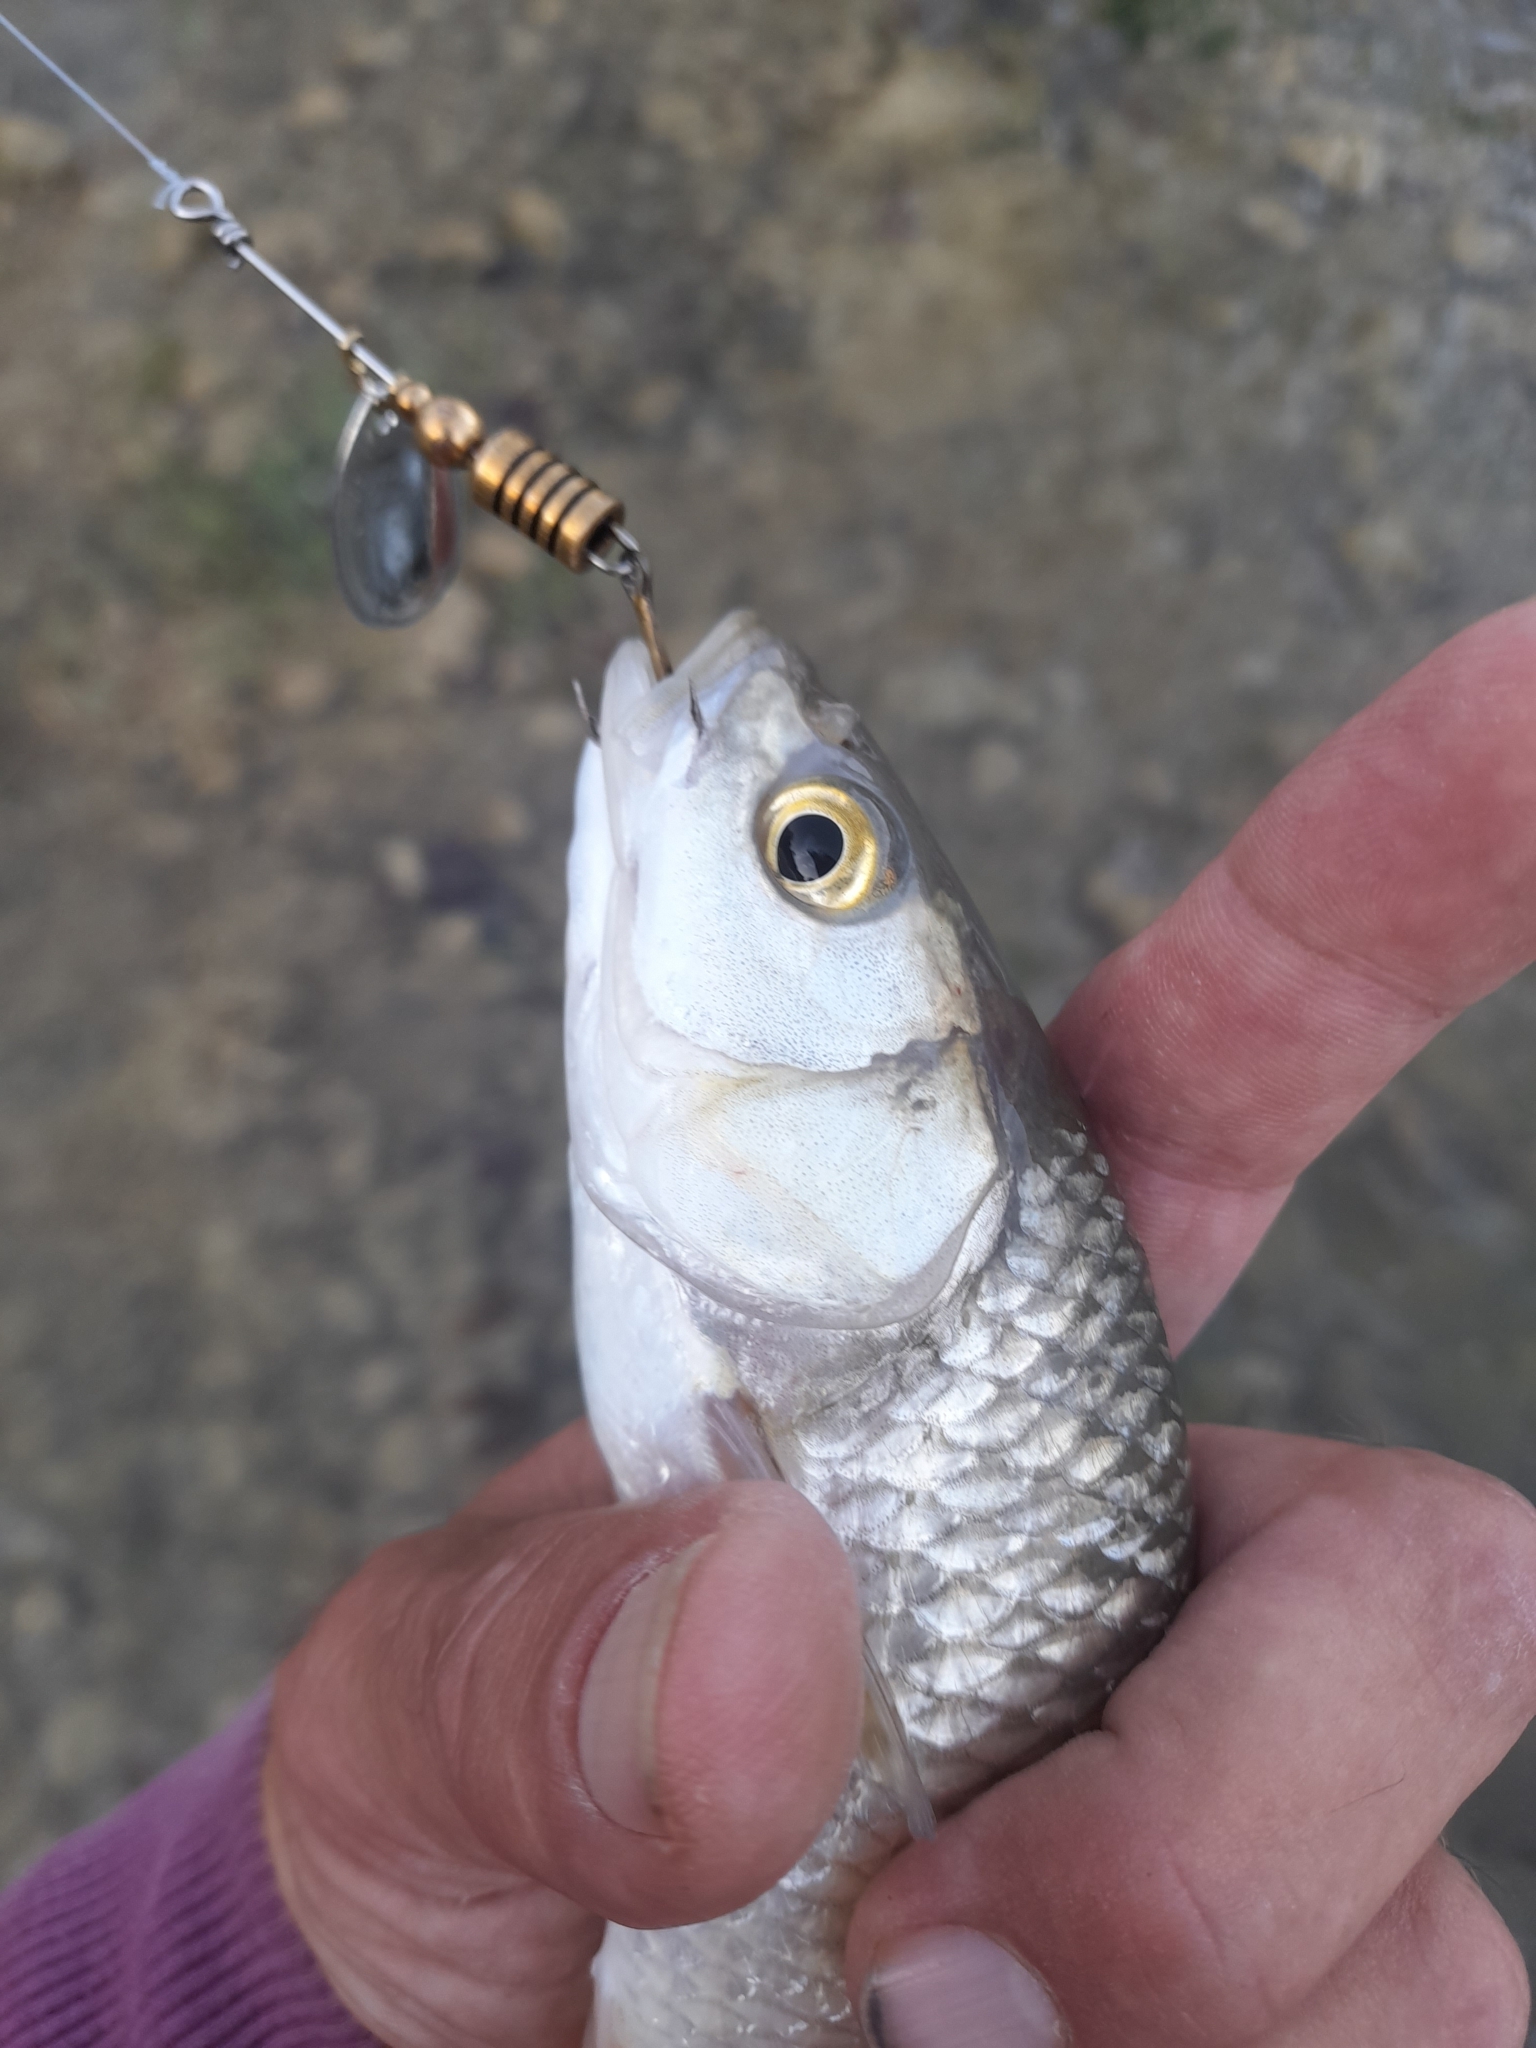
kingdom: Animalia
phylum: Chordata
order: Cypriniformes
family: Cyprinidae
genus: Squalius
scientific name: Squalius squalus
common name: Italian chub
